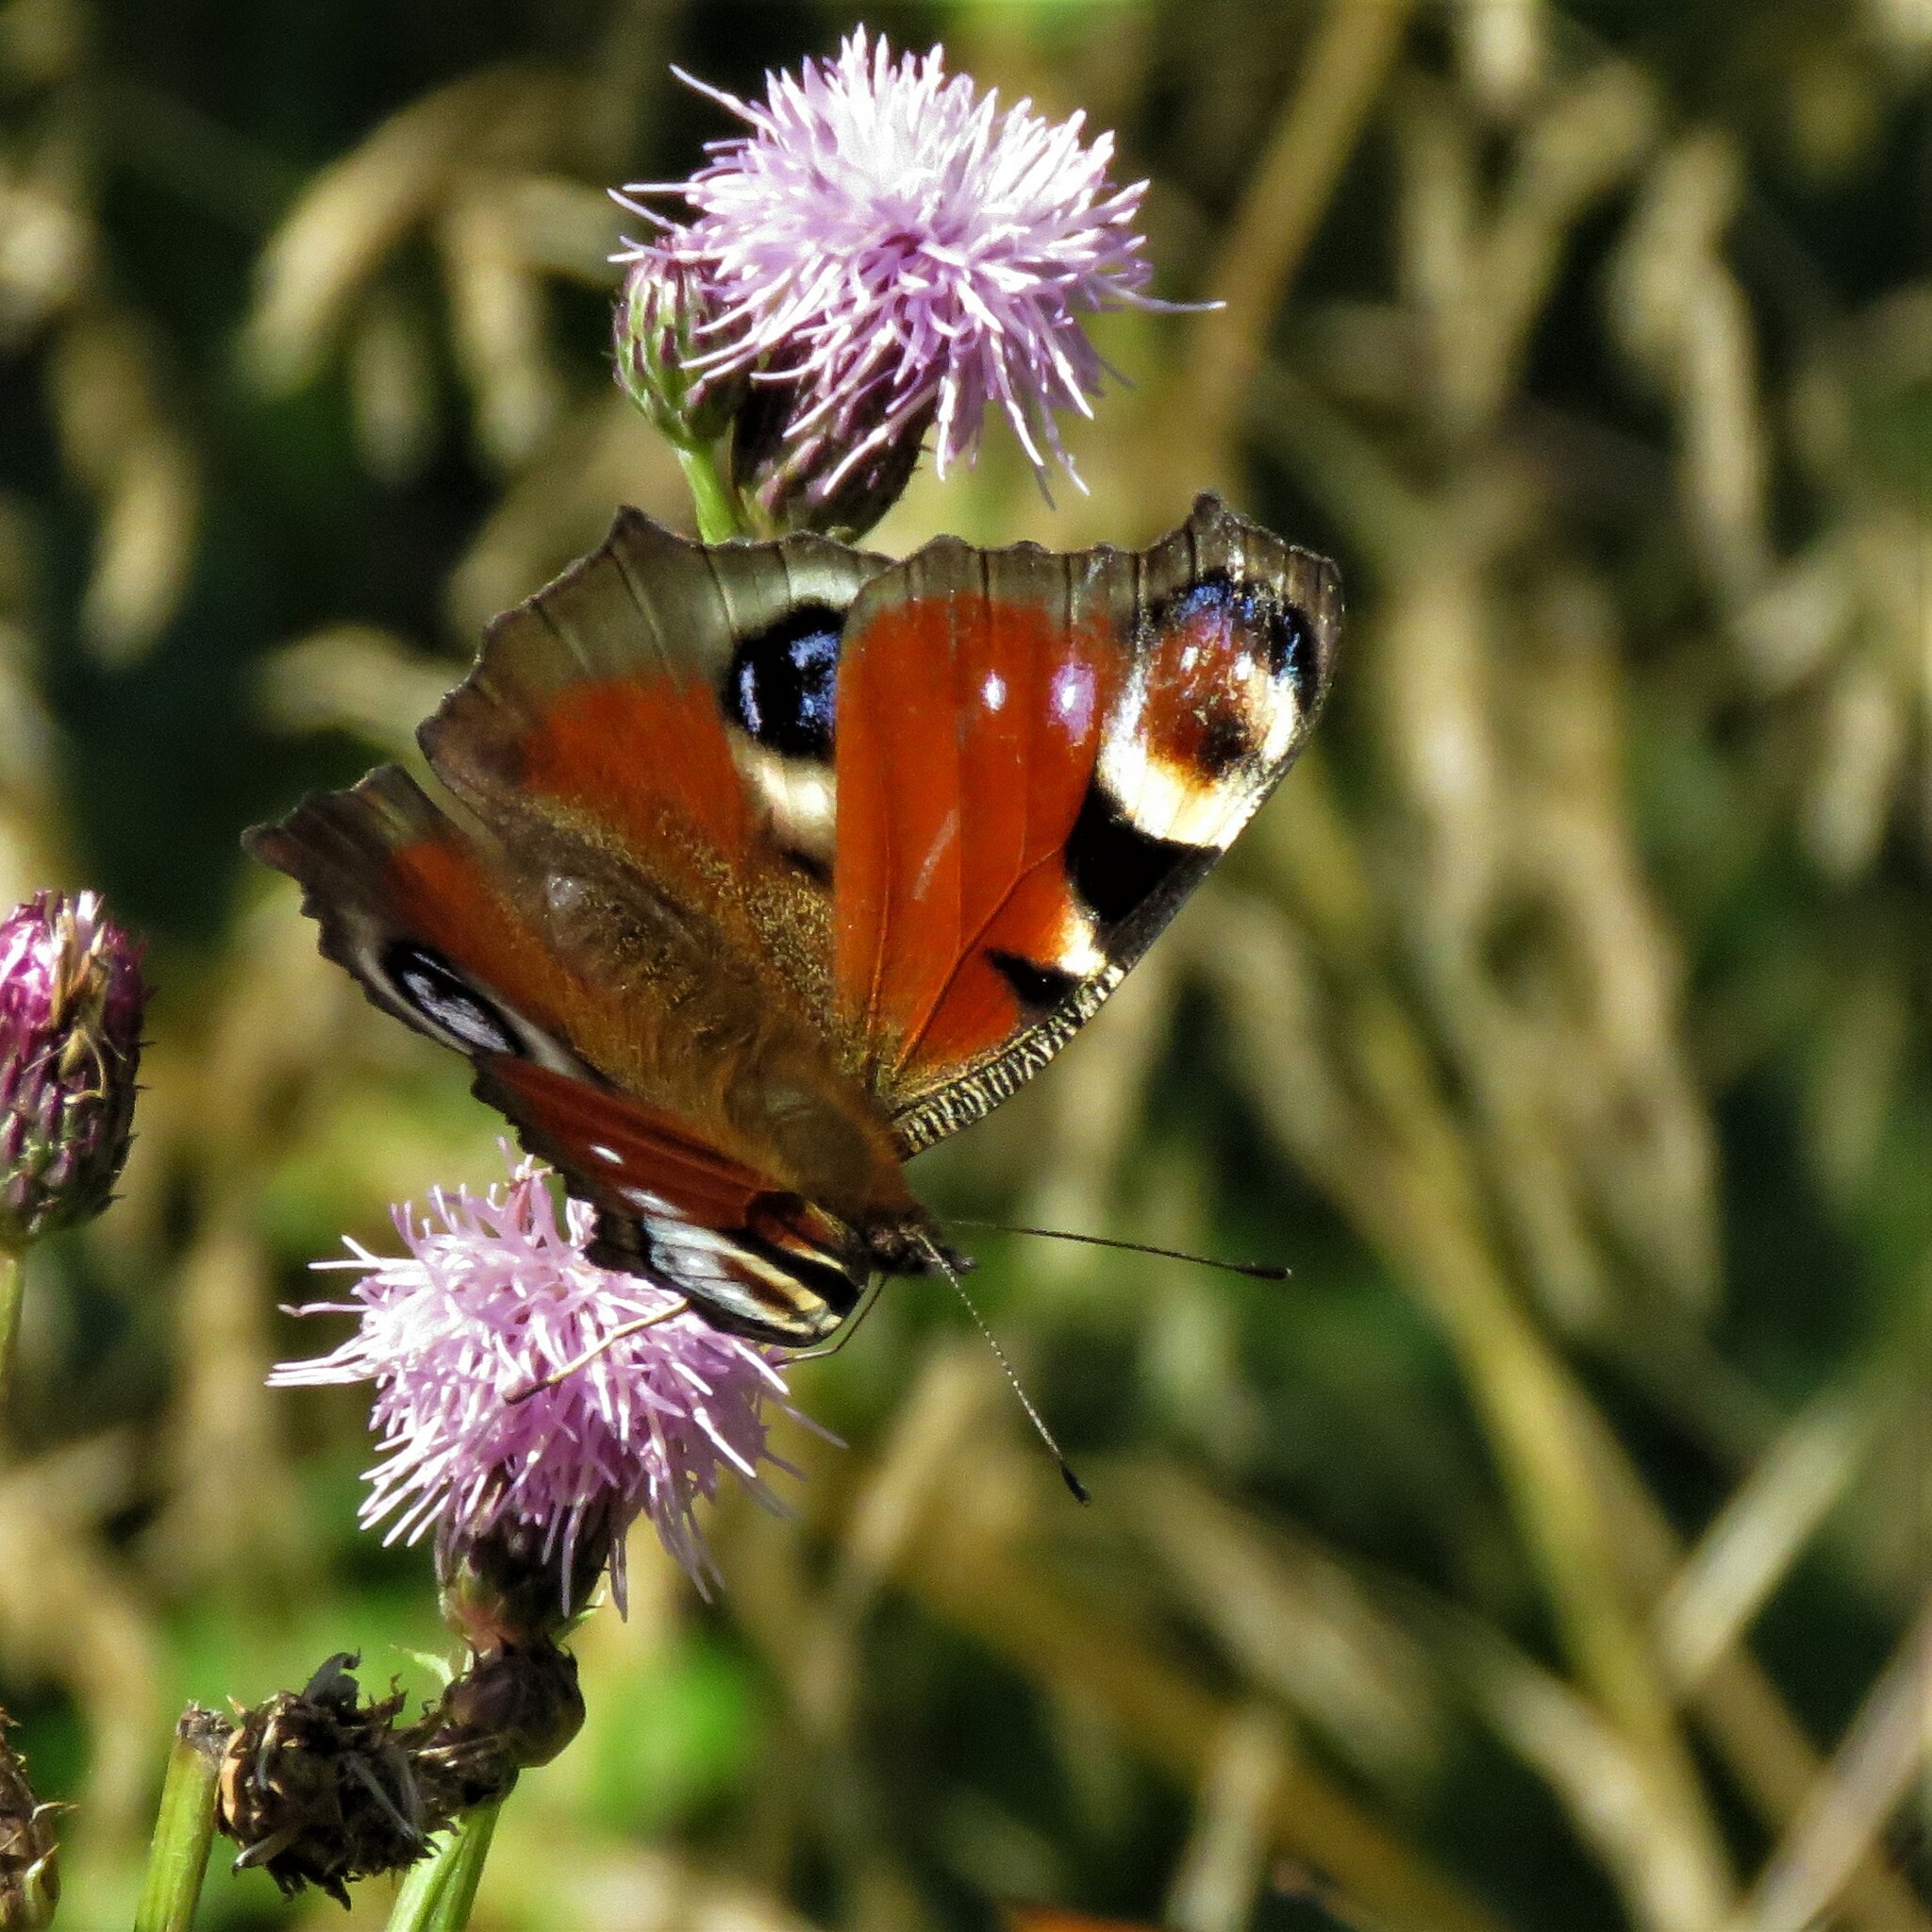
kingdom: Animalia
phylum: Arthropoda
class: Insecta
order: Lepidoptera
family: Nymphalidae
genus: Aglais
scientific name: Aglais io
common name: Peacock
